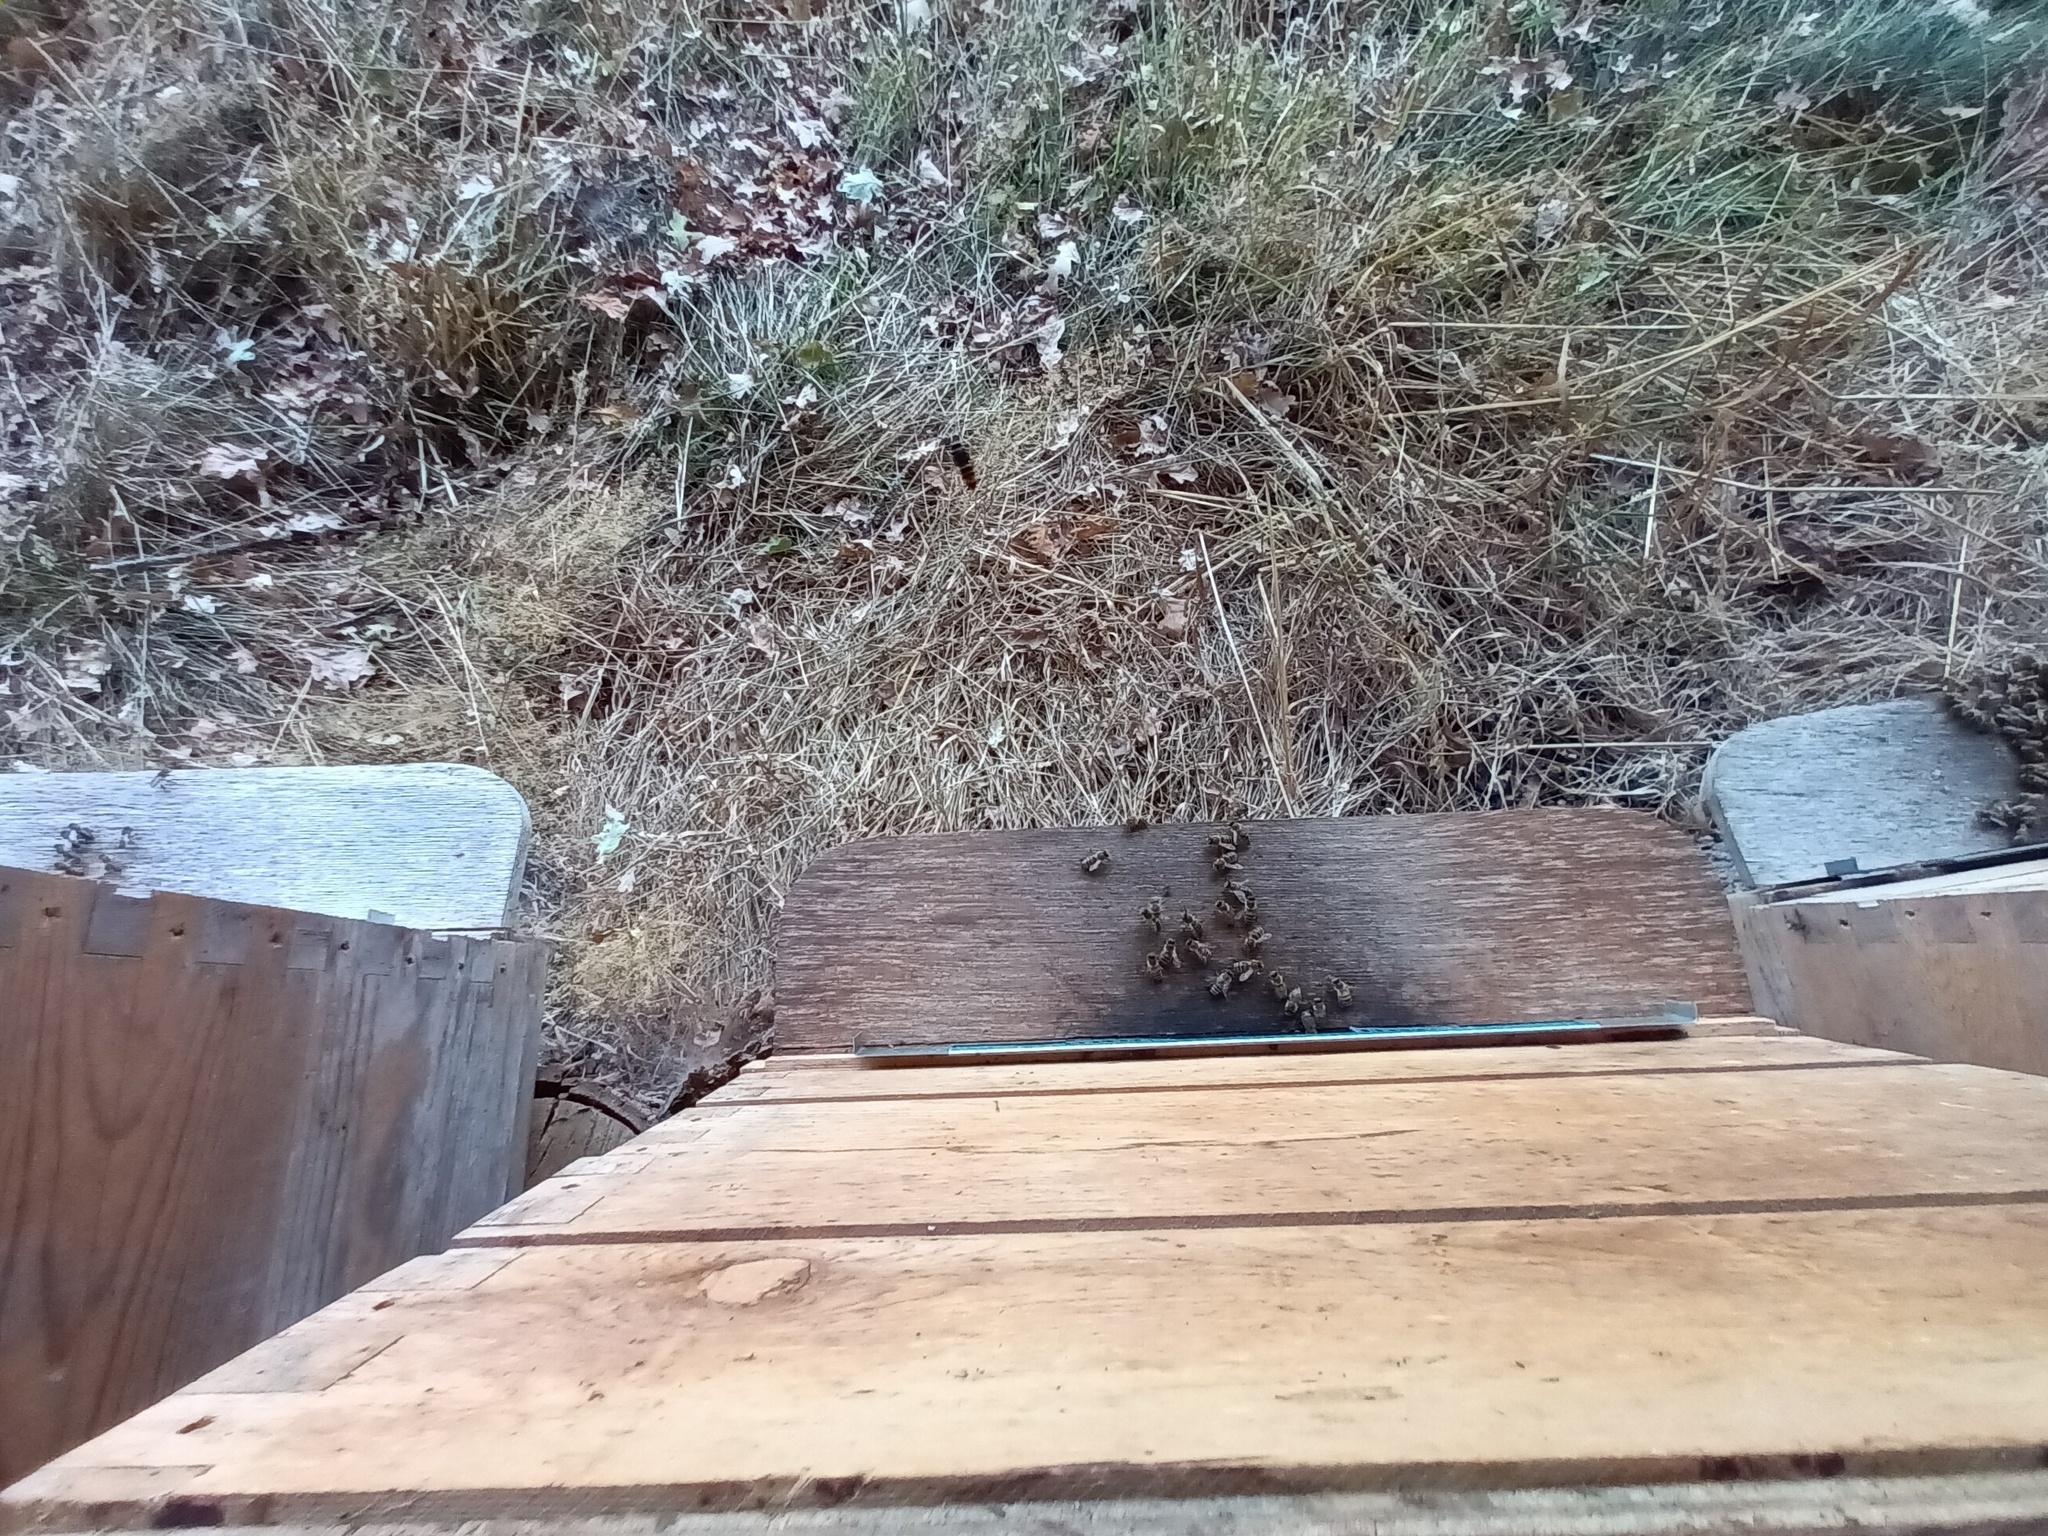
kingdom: Animalia
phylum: Arthropoda
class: Insecta
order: Hymenoptera
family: Vespidae
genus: Vespa
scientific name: Vespa velutina
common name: Asian hornet
